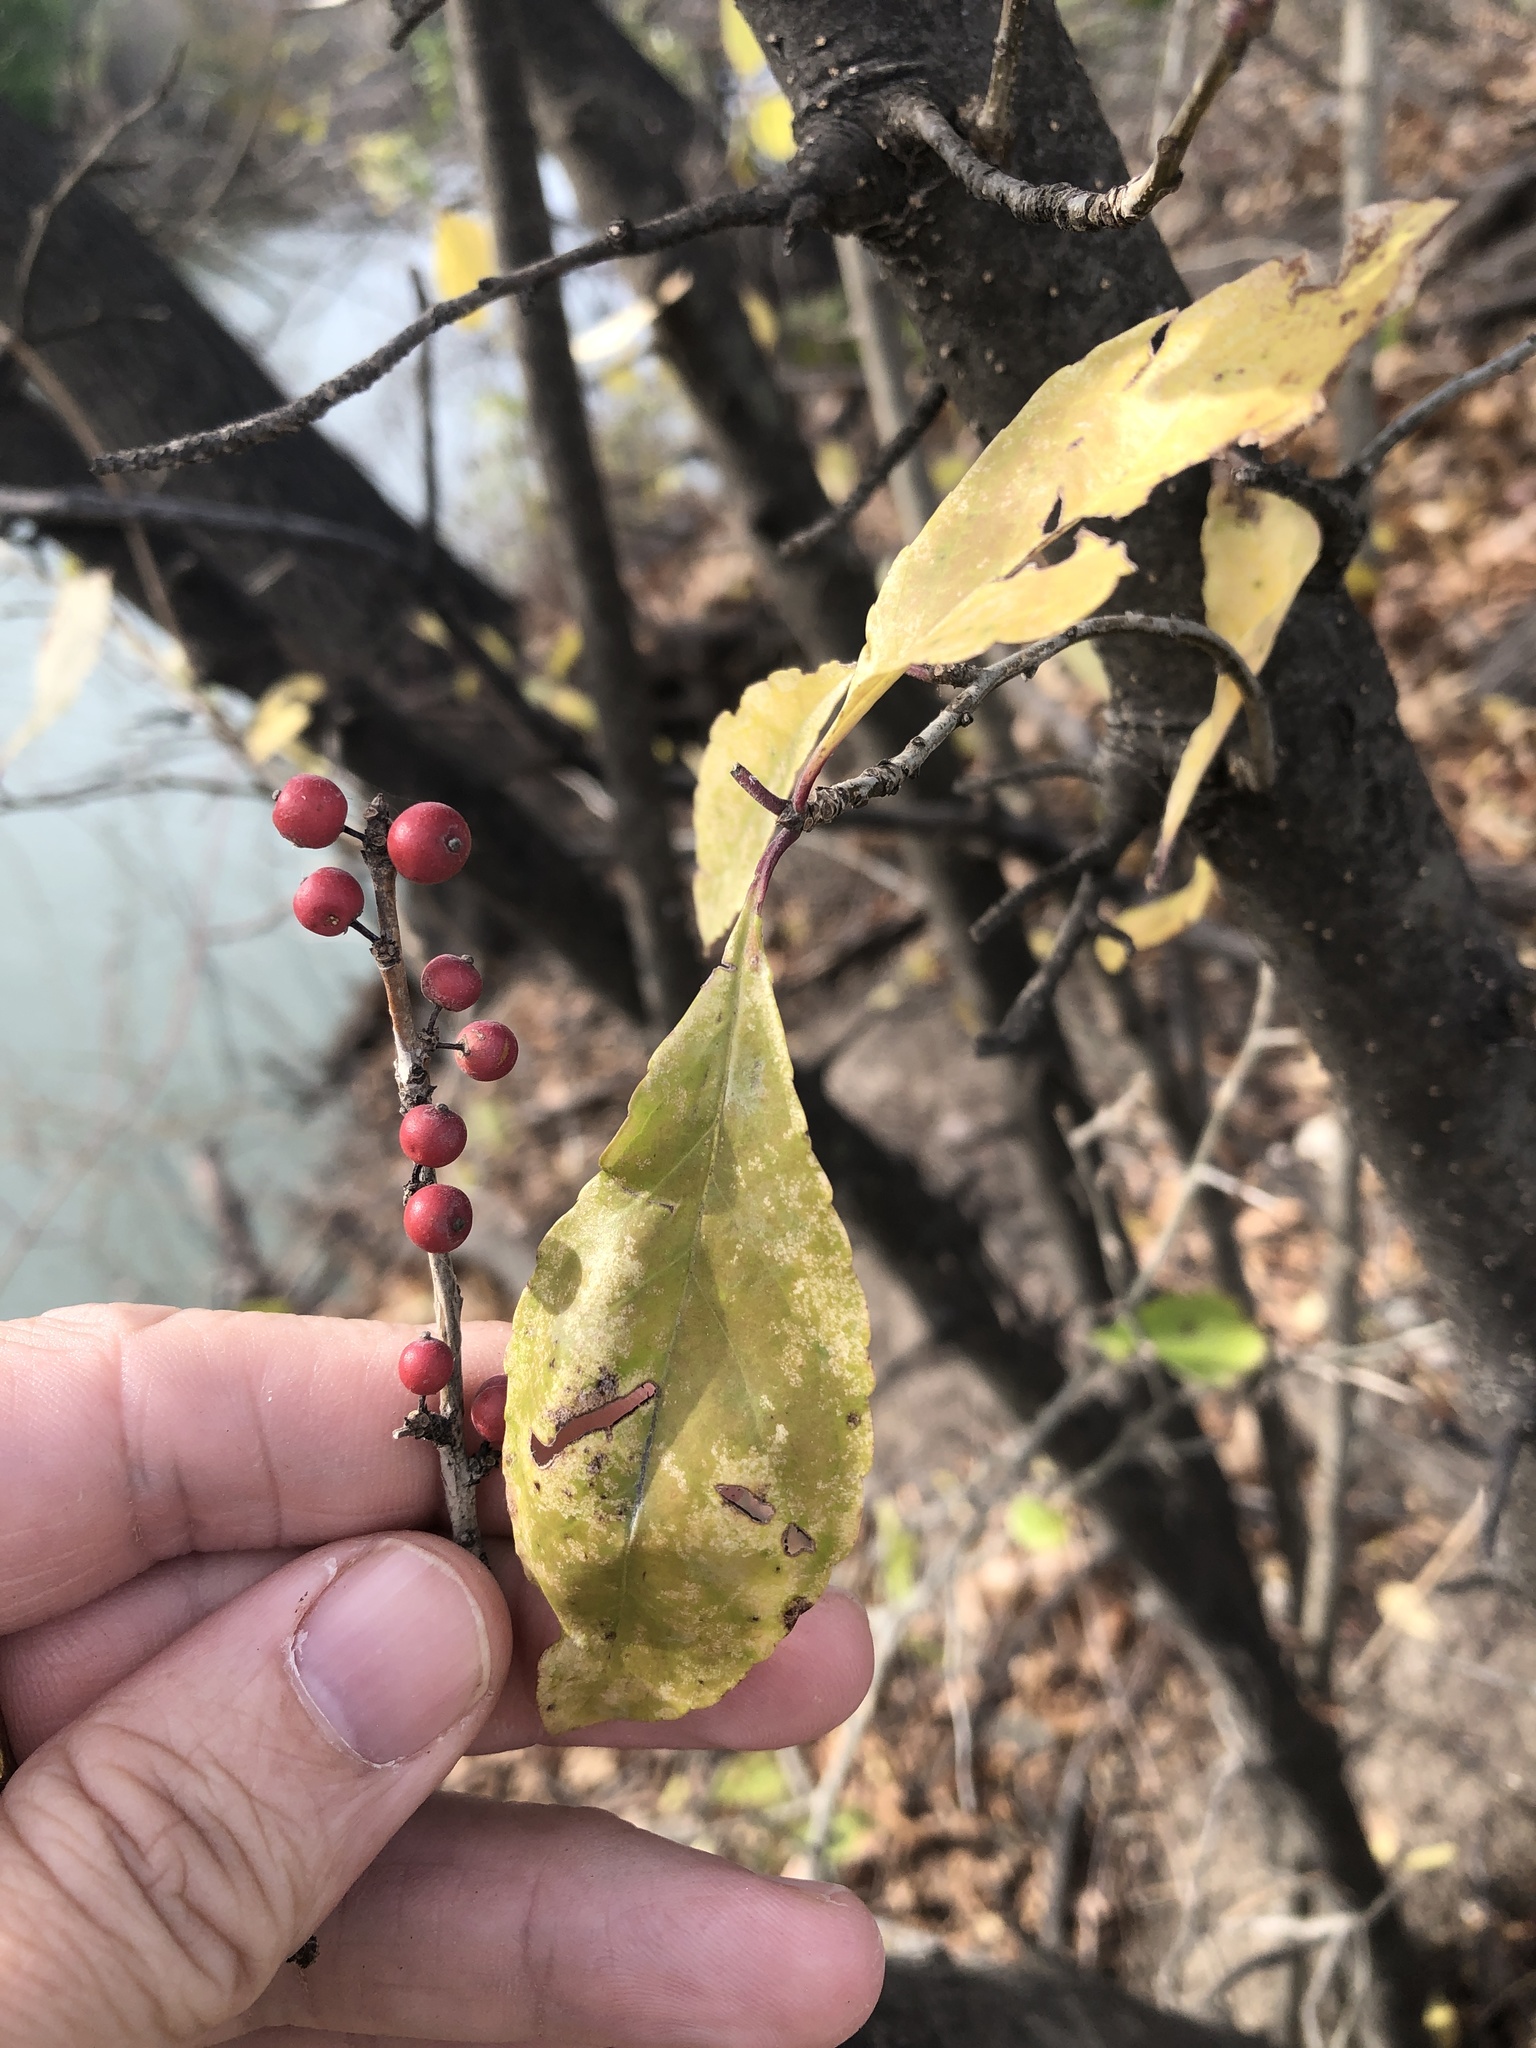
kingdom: Plantae
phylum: Tracheophyta
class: Magnoliopsida
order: Aquifoliales
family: Aquifoliaceae
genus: Ilex
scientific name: Ilex decidua
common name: Possum-haw
